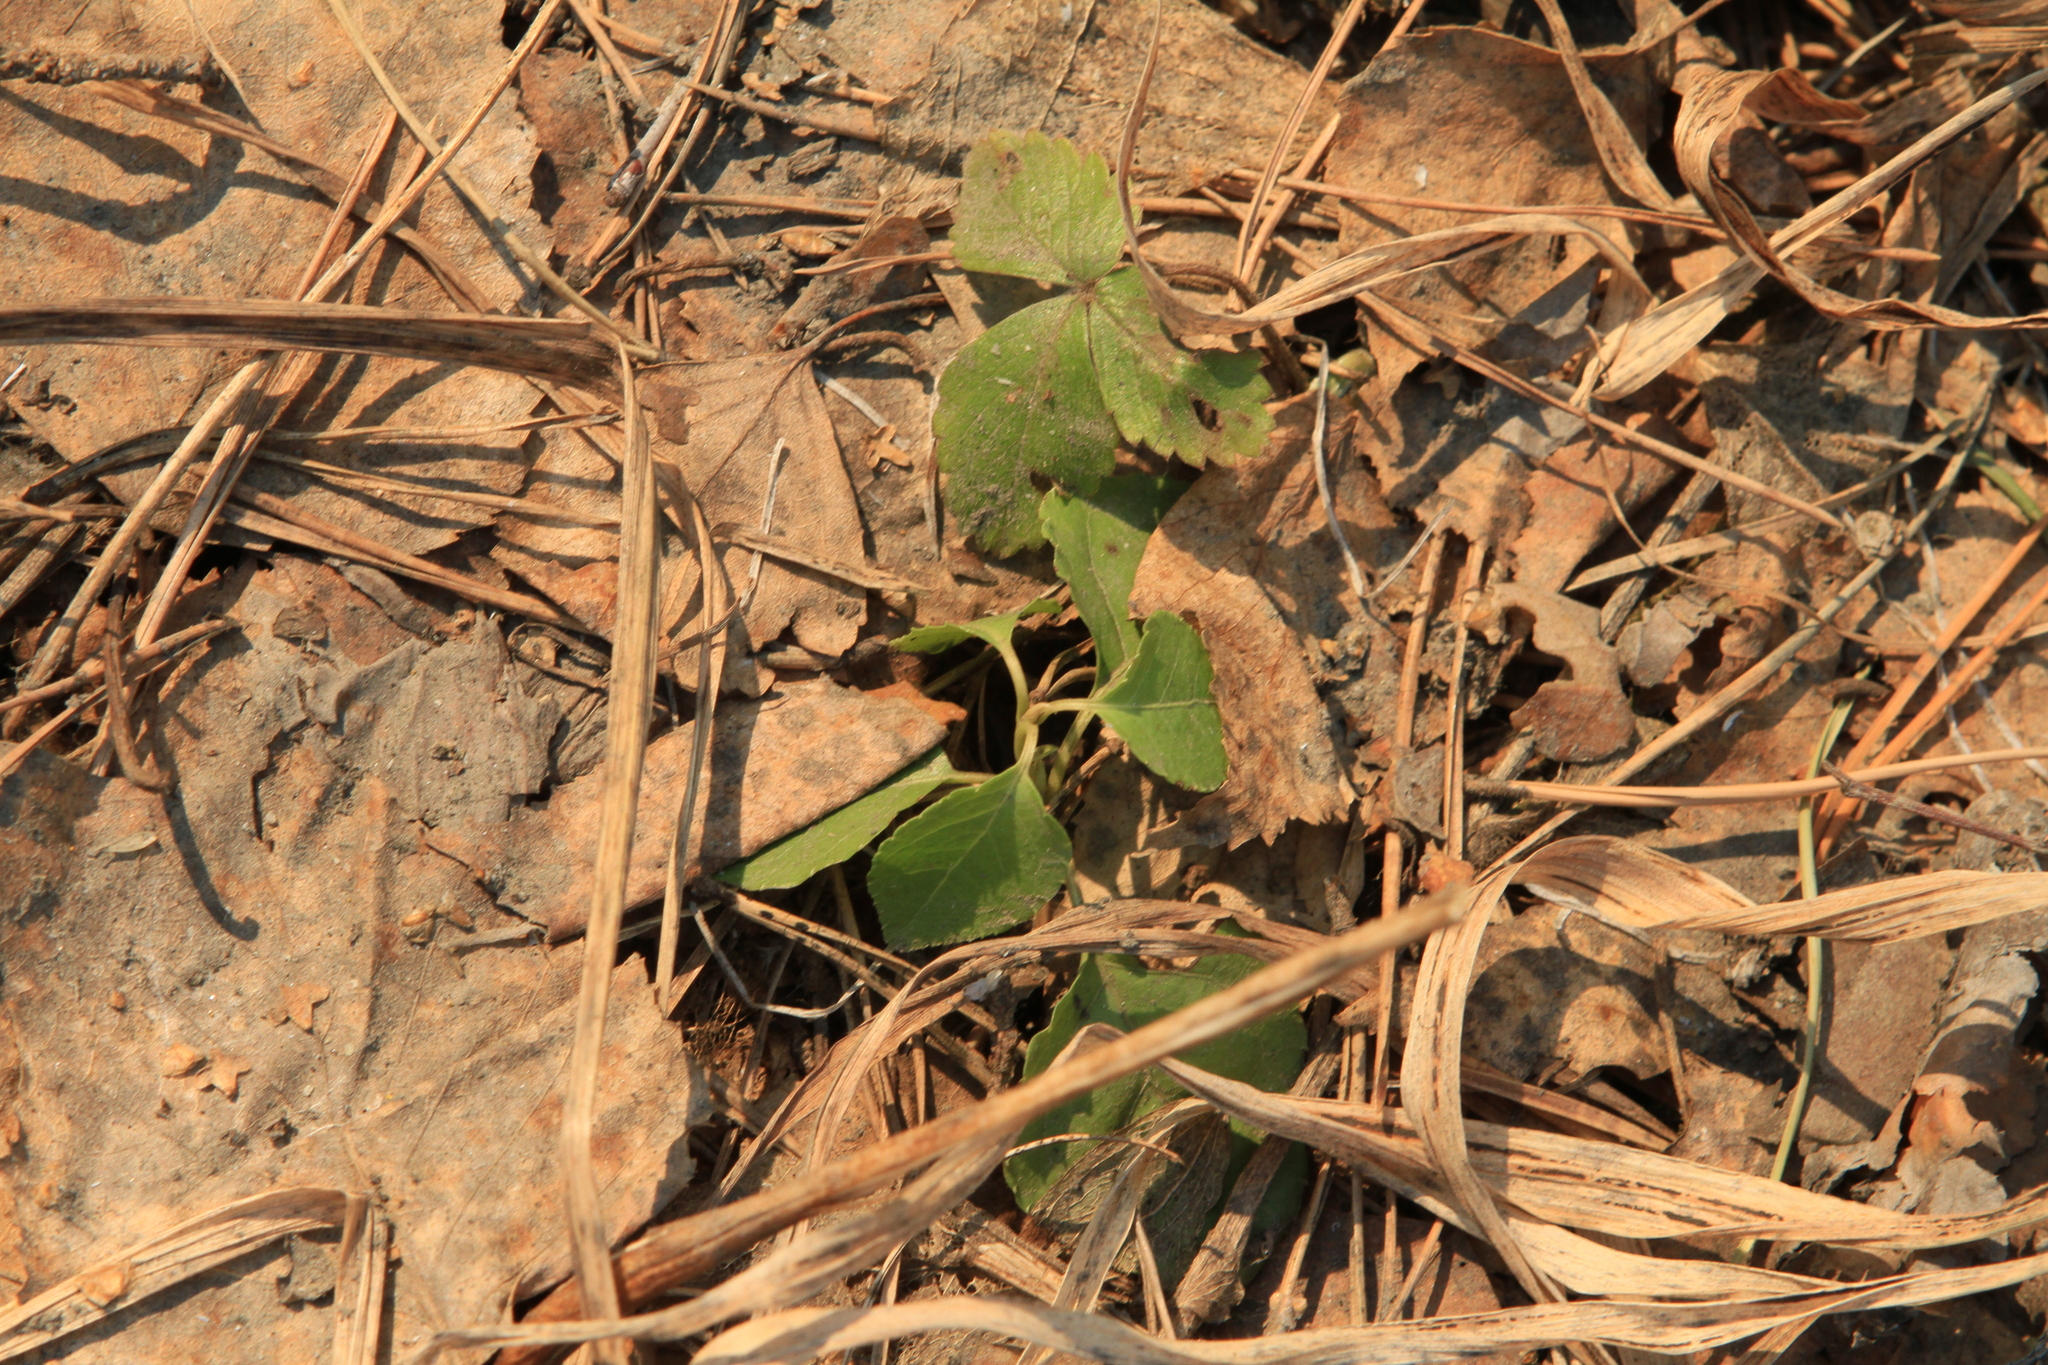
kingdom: Plantae
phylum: Tracheophyta
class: Magnoliopsida
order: Ericales
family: Ericaceae
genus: Orthilia
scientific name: Orthilia secunda
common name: One-sided orthilia
